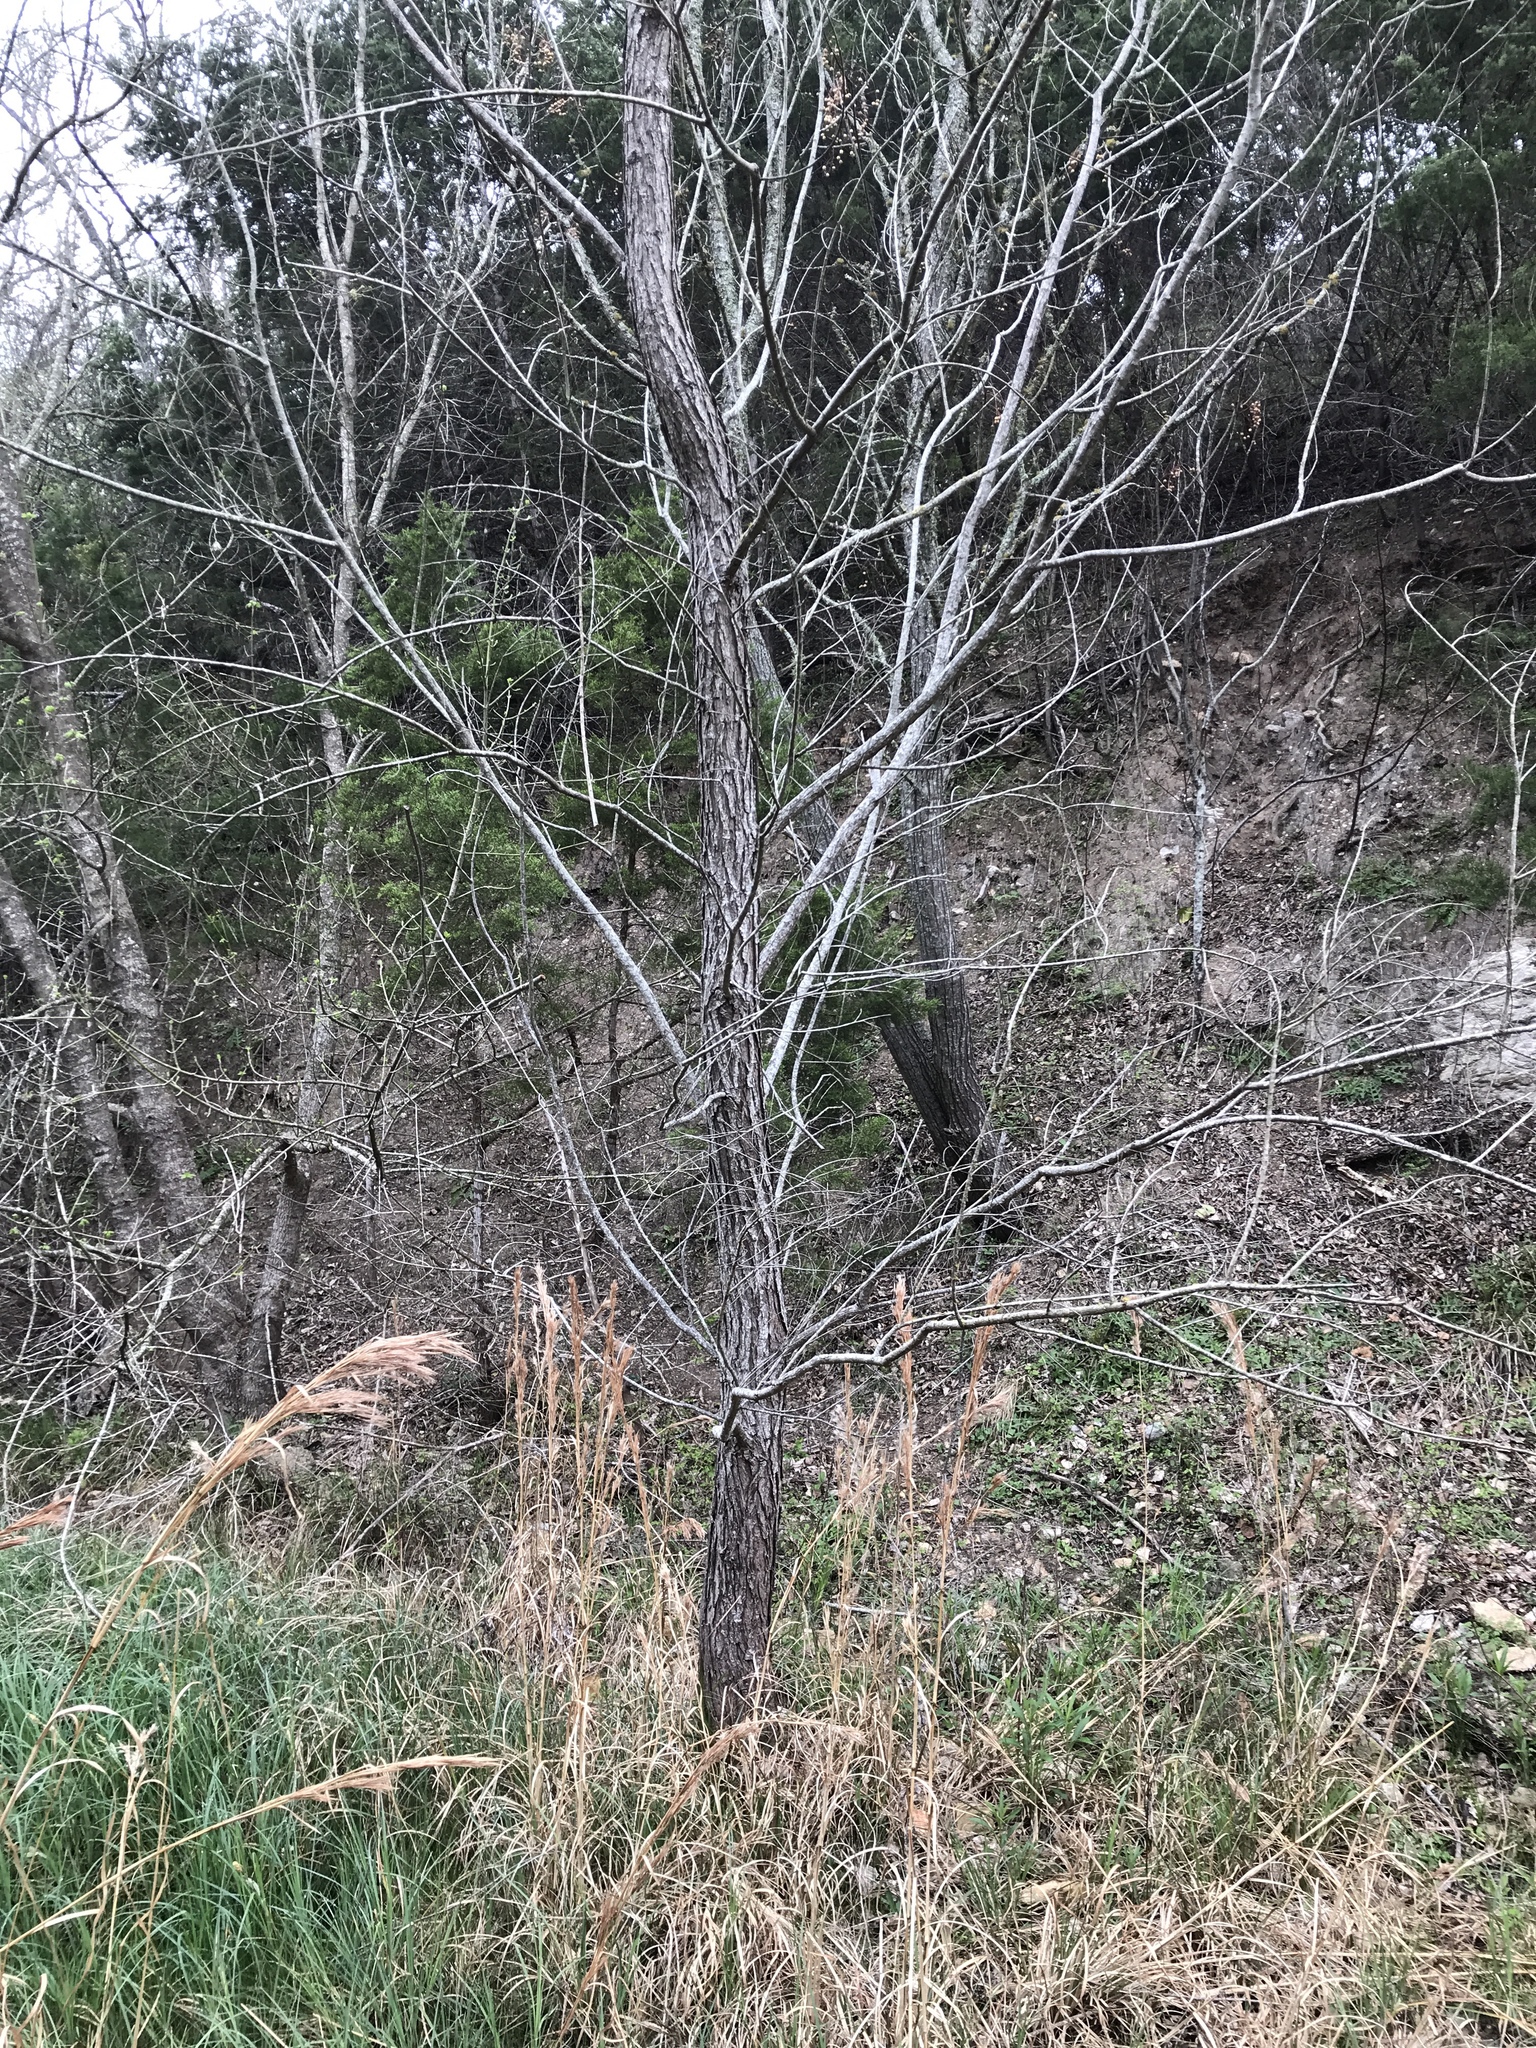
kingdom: Plantae
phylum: Tracheophyta
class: Magnoliopsida
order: Malpighiales
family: Salicaceae
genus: Salix
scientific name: Salix nigra
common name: Black willow
